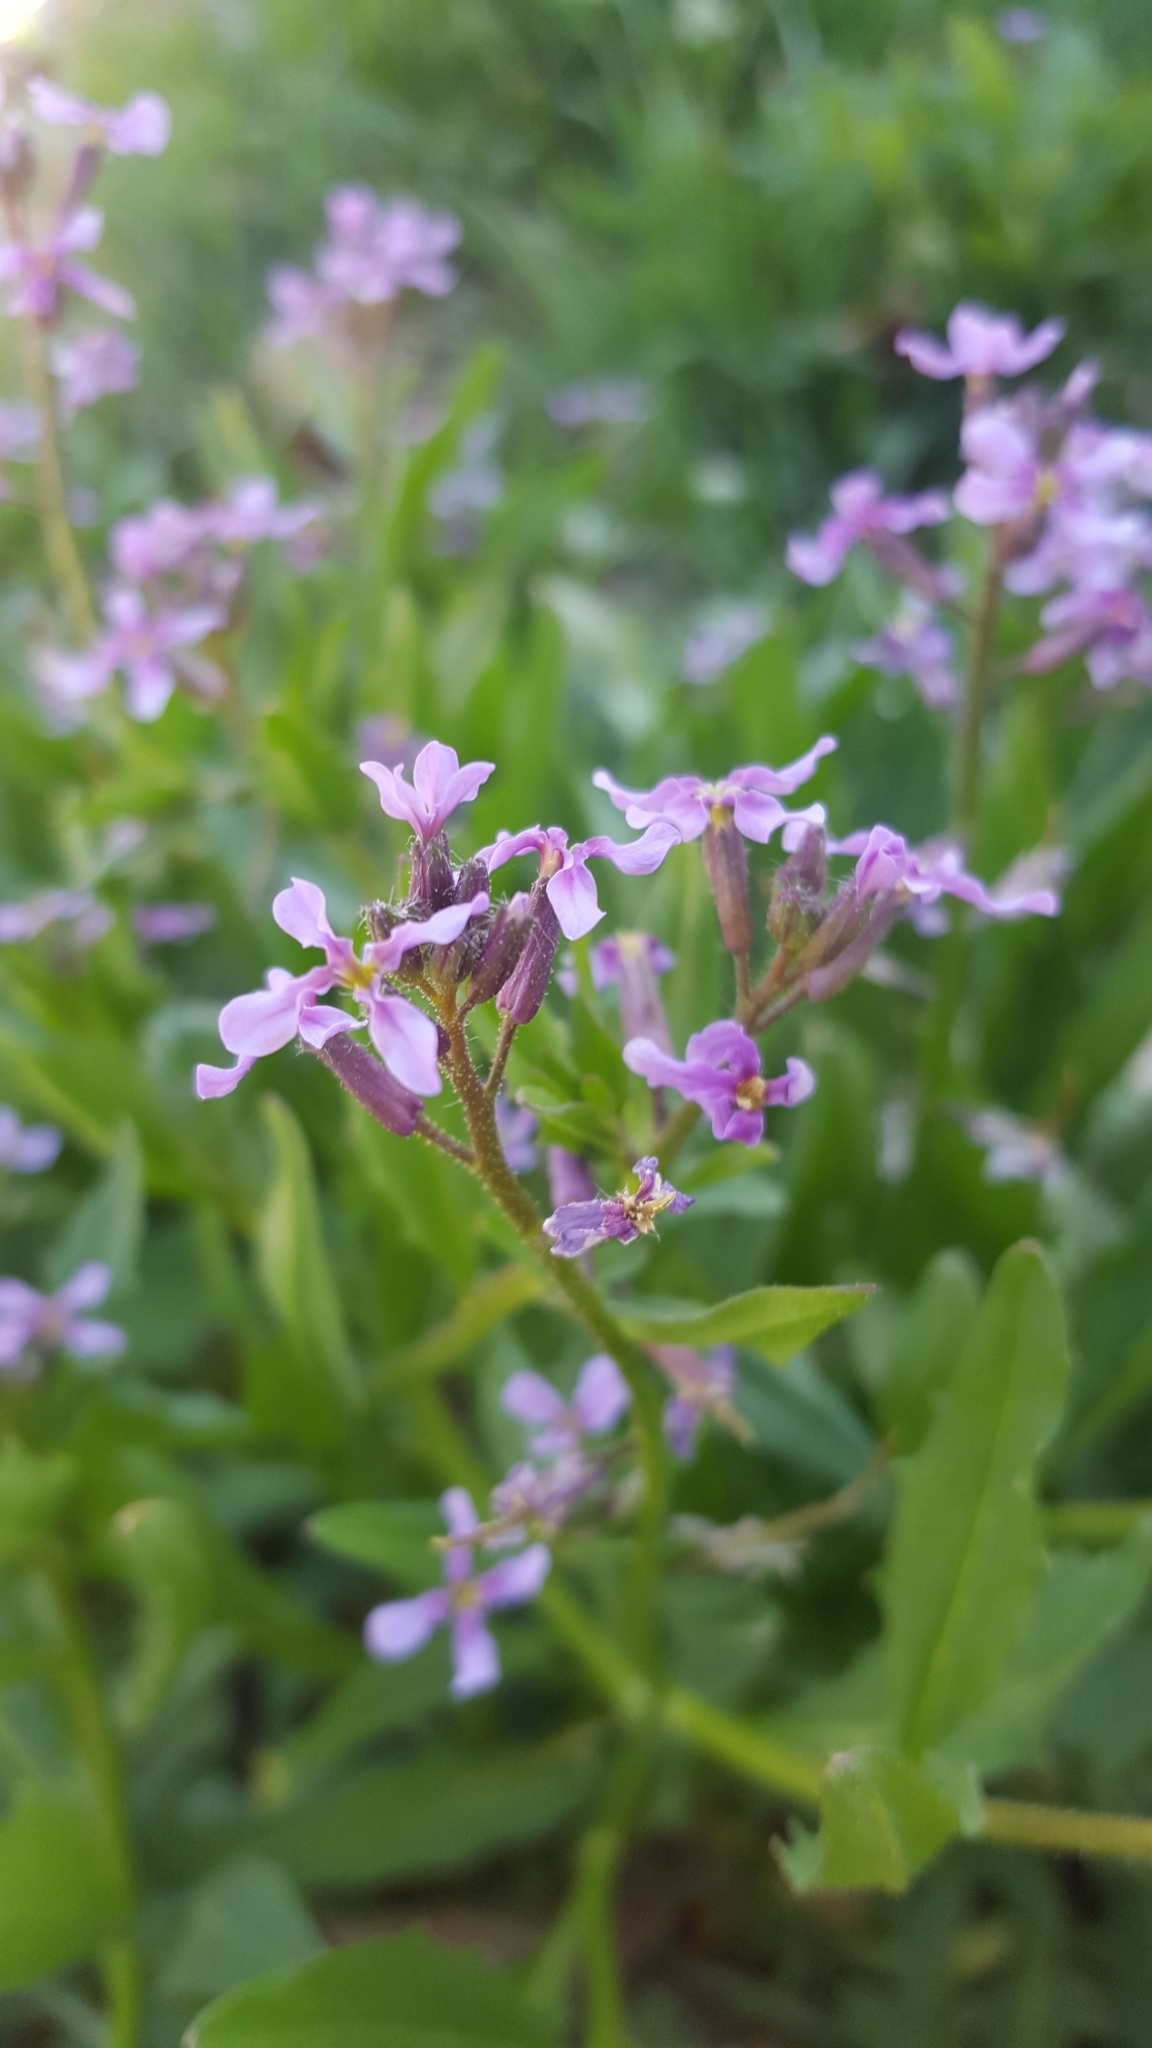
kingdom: Plantae
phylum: Tracheophyta
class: Magnoliopsida
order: Brassicales
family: Brassicaceae
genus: Chorispora
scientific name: Chorispora tenella
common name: Crossflower
